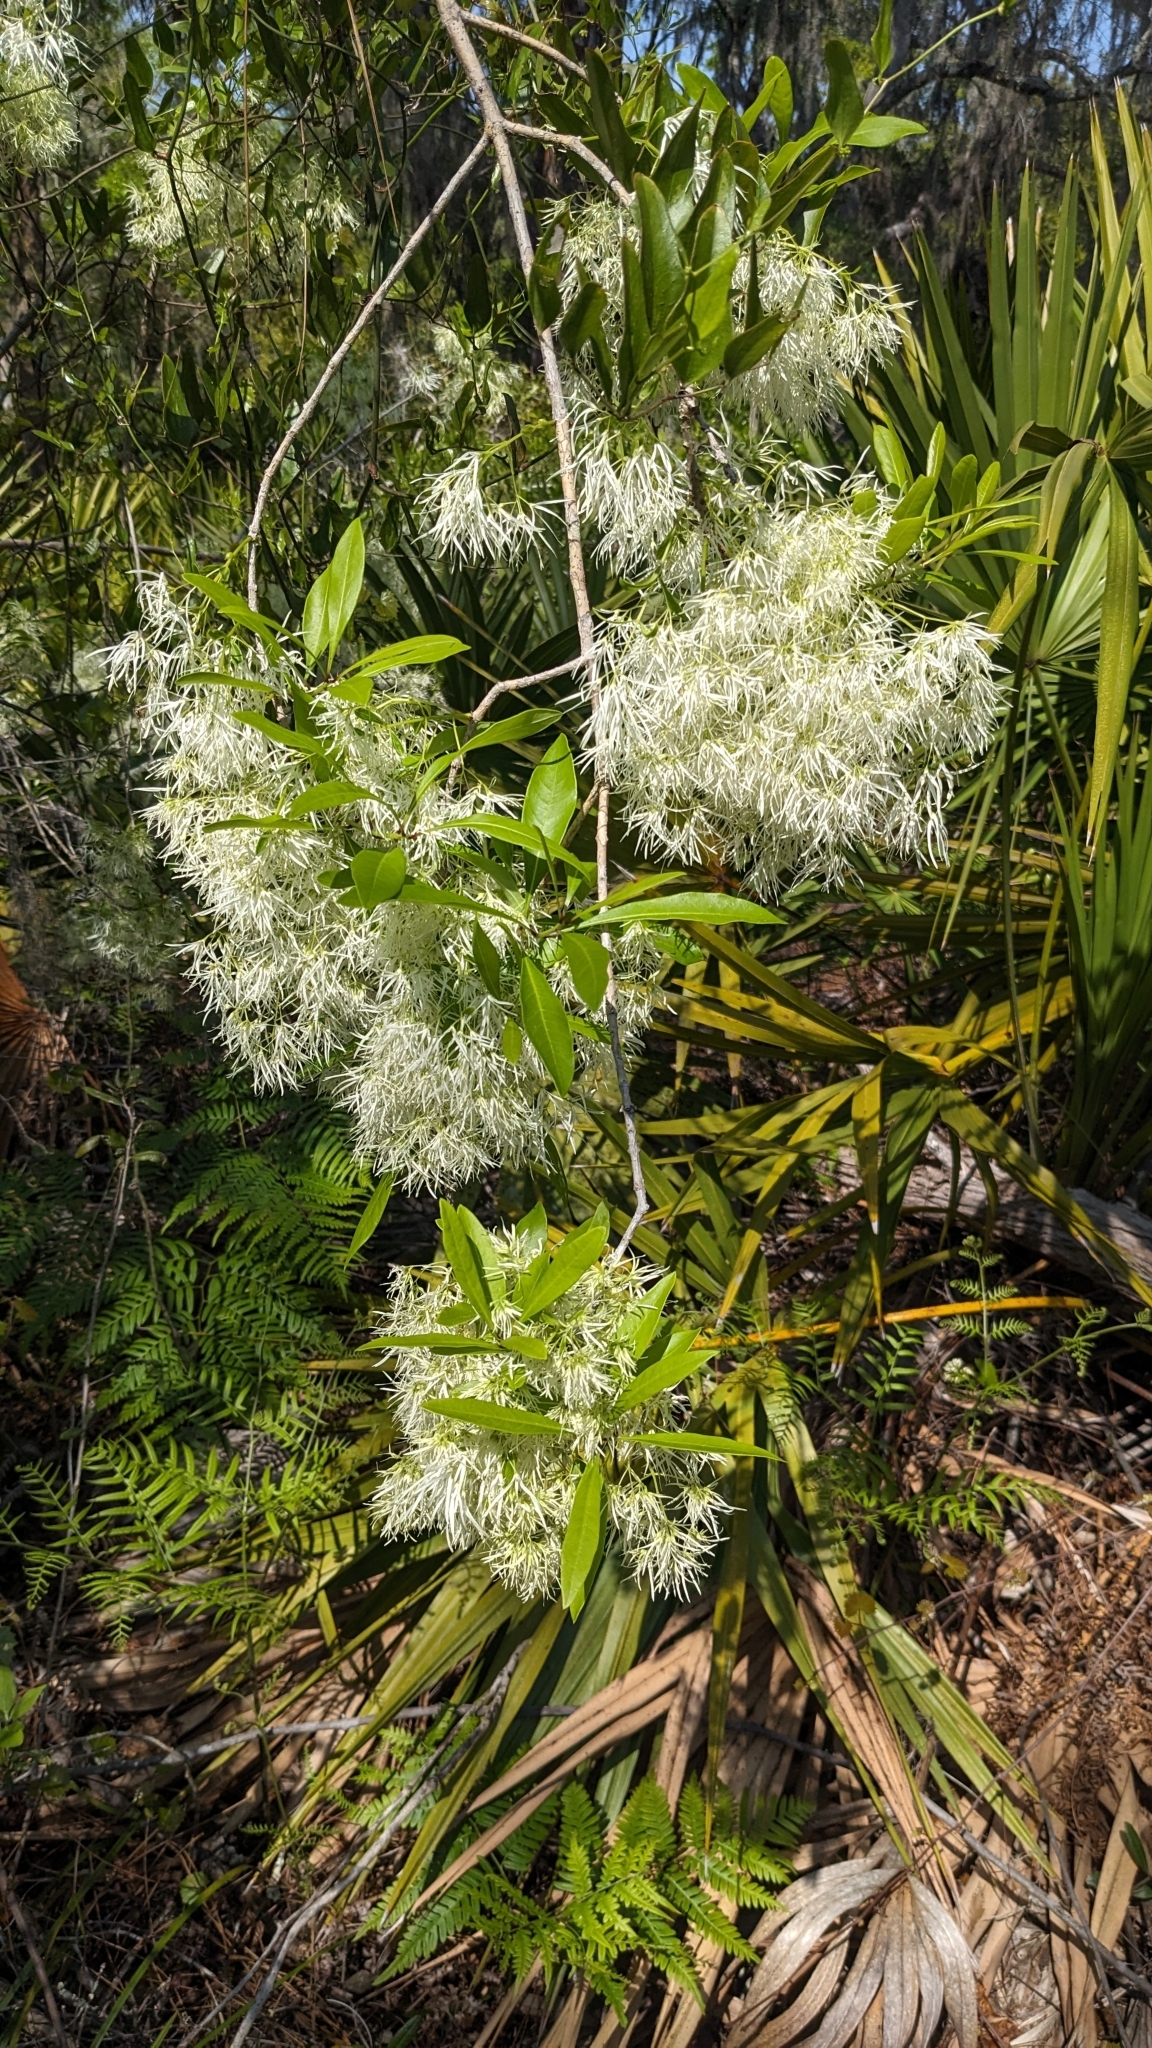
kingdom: Plantae
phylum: Tracheophyta
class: Magnoliopsida
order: Lamiales
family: Oleaceae
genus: Chionanthus
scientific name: Chionanthus virginicus
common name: American fringetree
